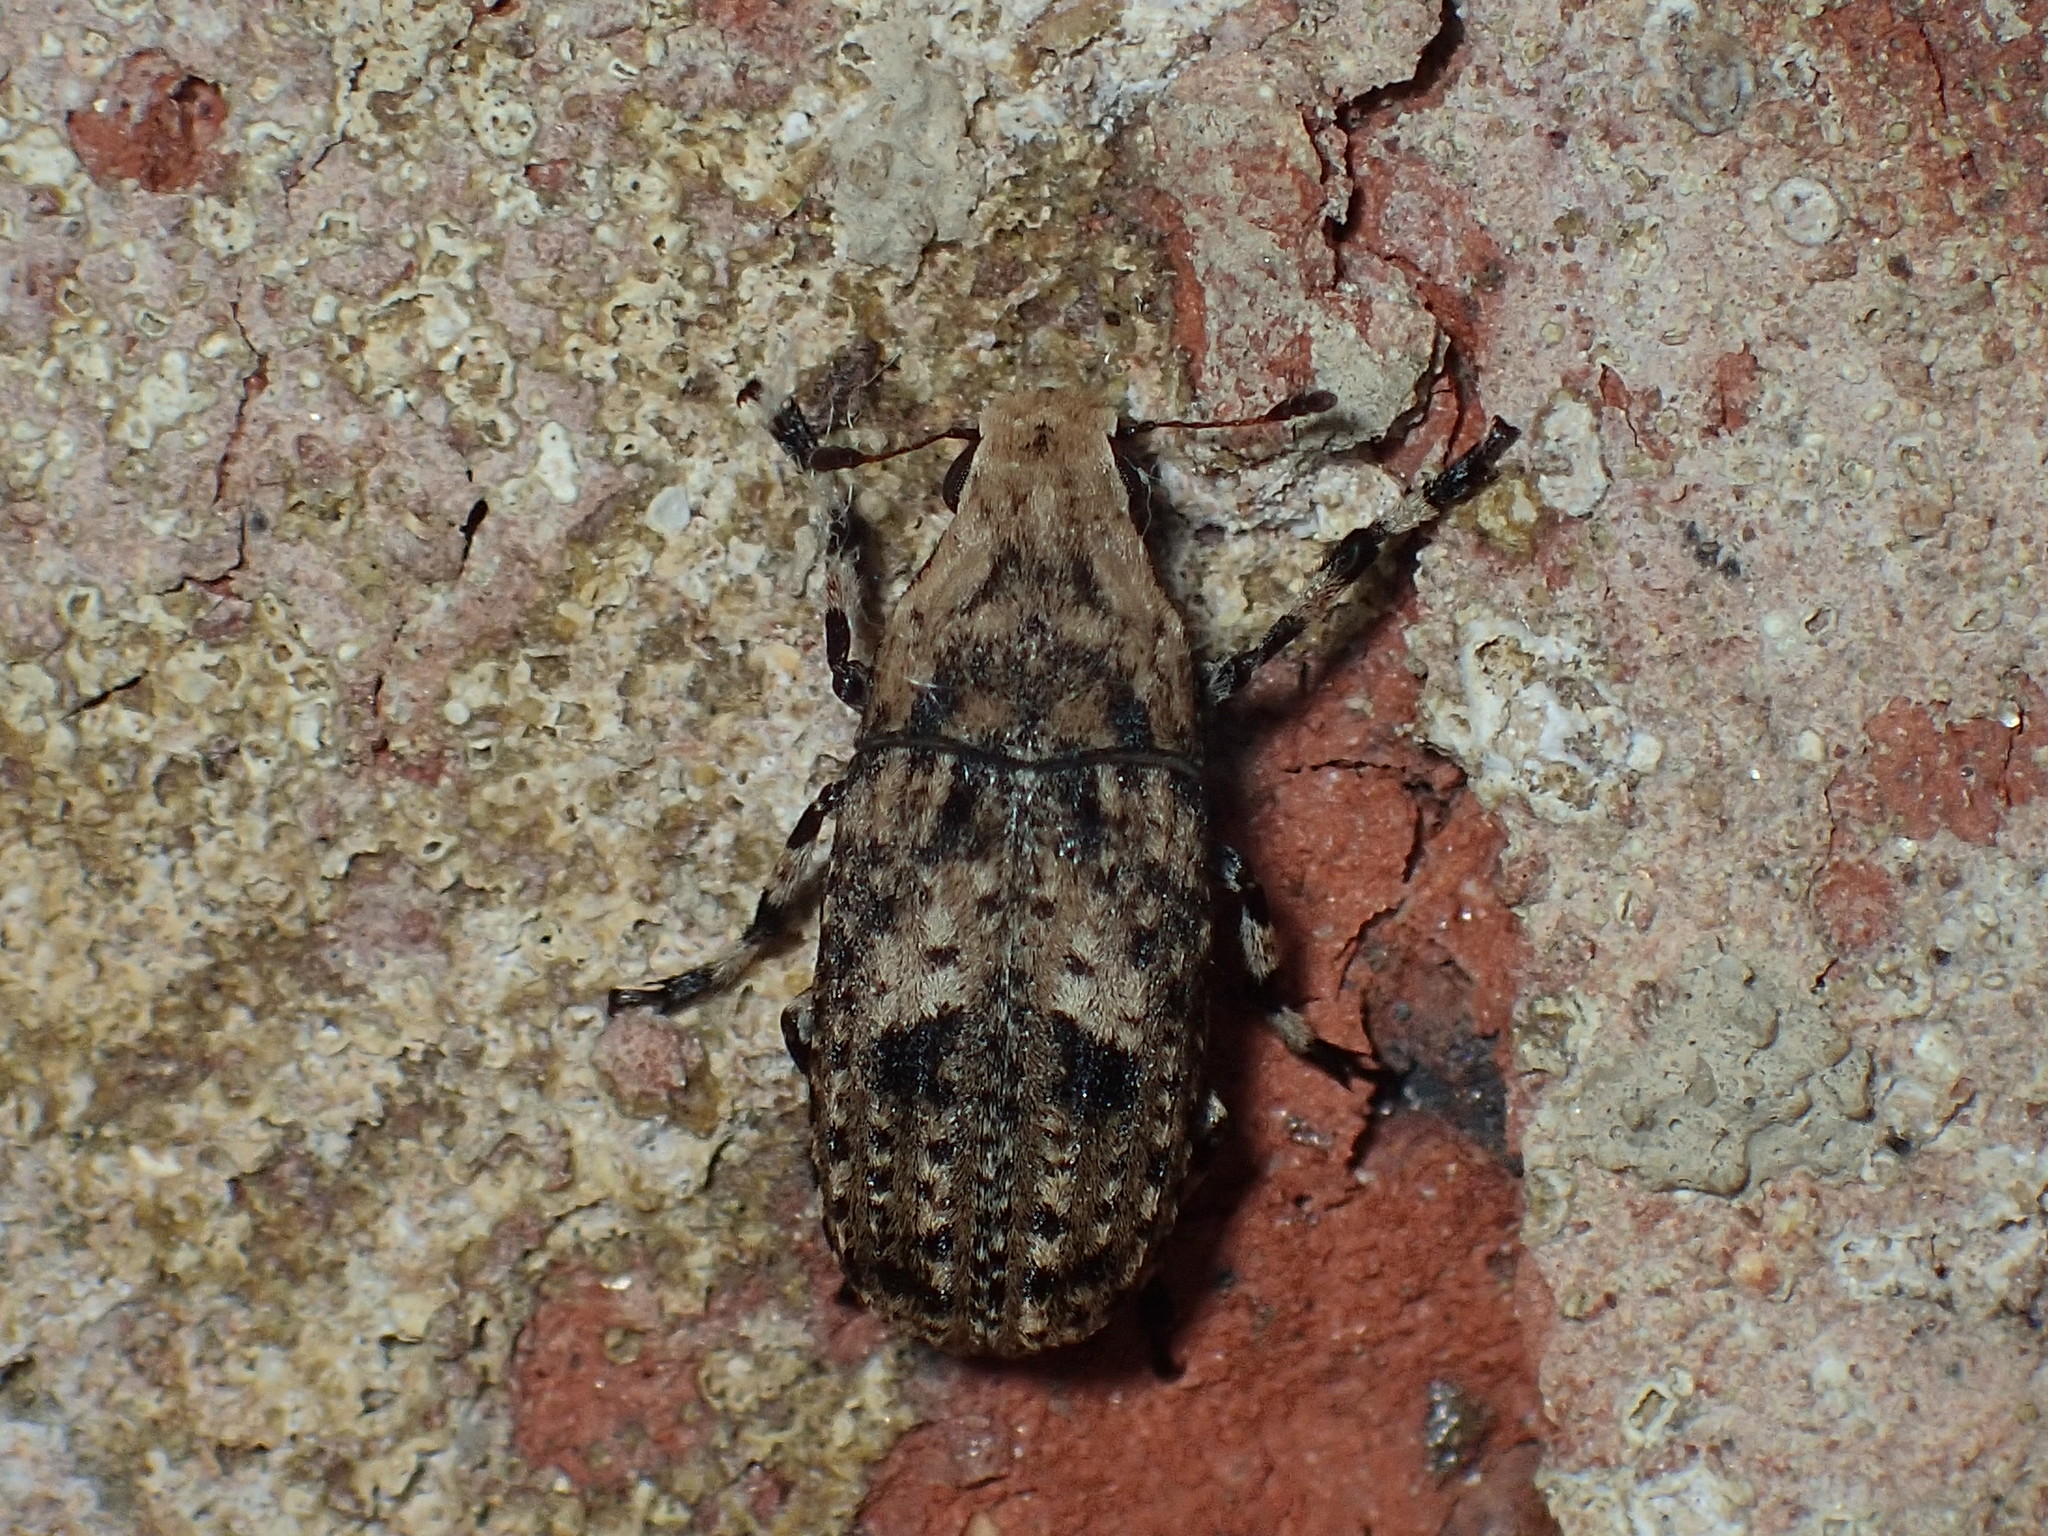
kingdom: Animalia
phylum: Arthropoda
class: Insecta
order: Coleoptera
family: Anthribidae
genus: Euparius
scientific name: Euparius marmoreus
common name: Marbled fungus weevil
